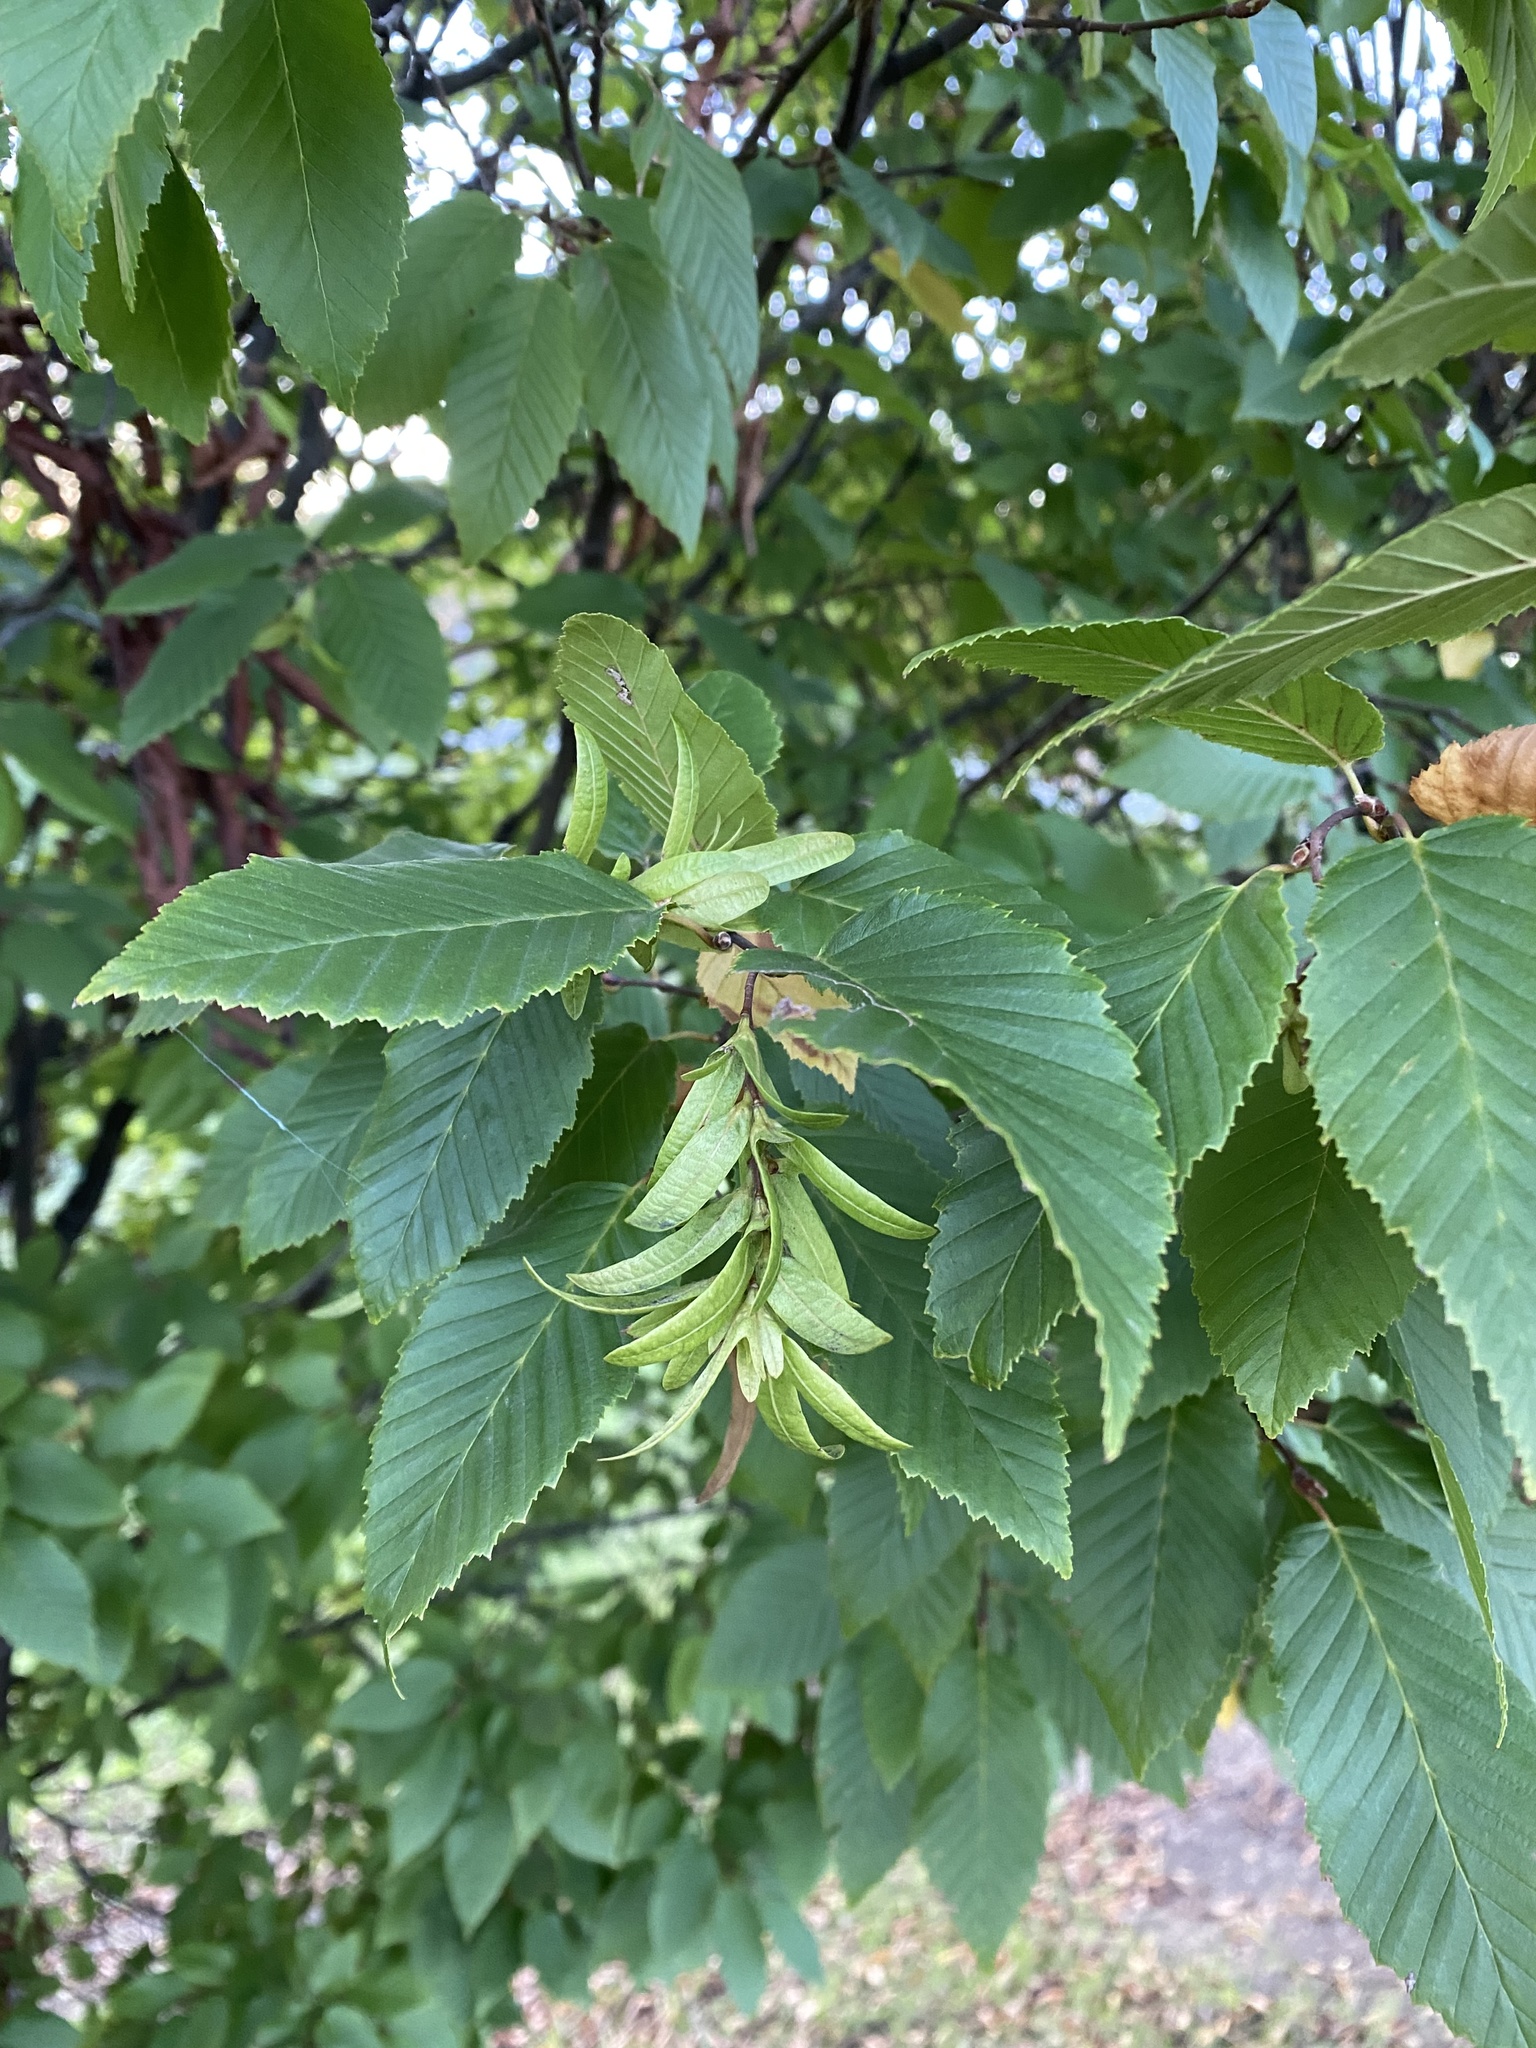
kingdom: Plantae
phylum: Tracheophyta
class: Magnoliopsida
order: Fagales
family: Betulaceae
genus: Carpinus
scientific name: Carpinus caroliniana
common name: American hornbeam
